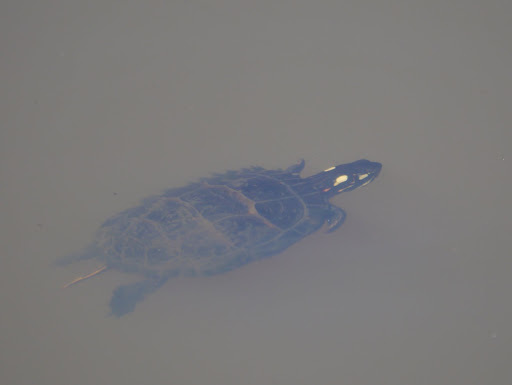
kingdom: Animalia
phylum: Chordata
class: Testudines
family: Emydidae
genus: Chrysemys
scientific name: Chrysemys picta
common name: Painted turtle
